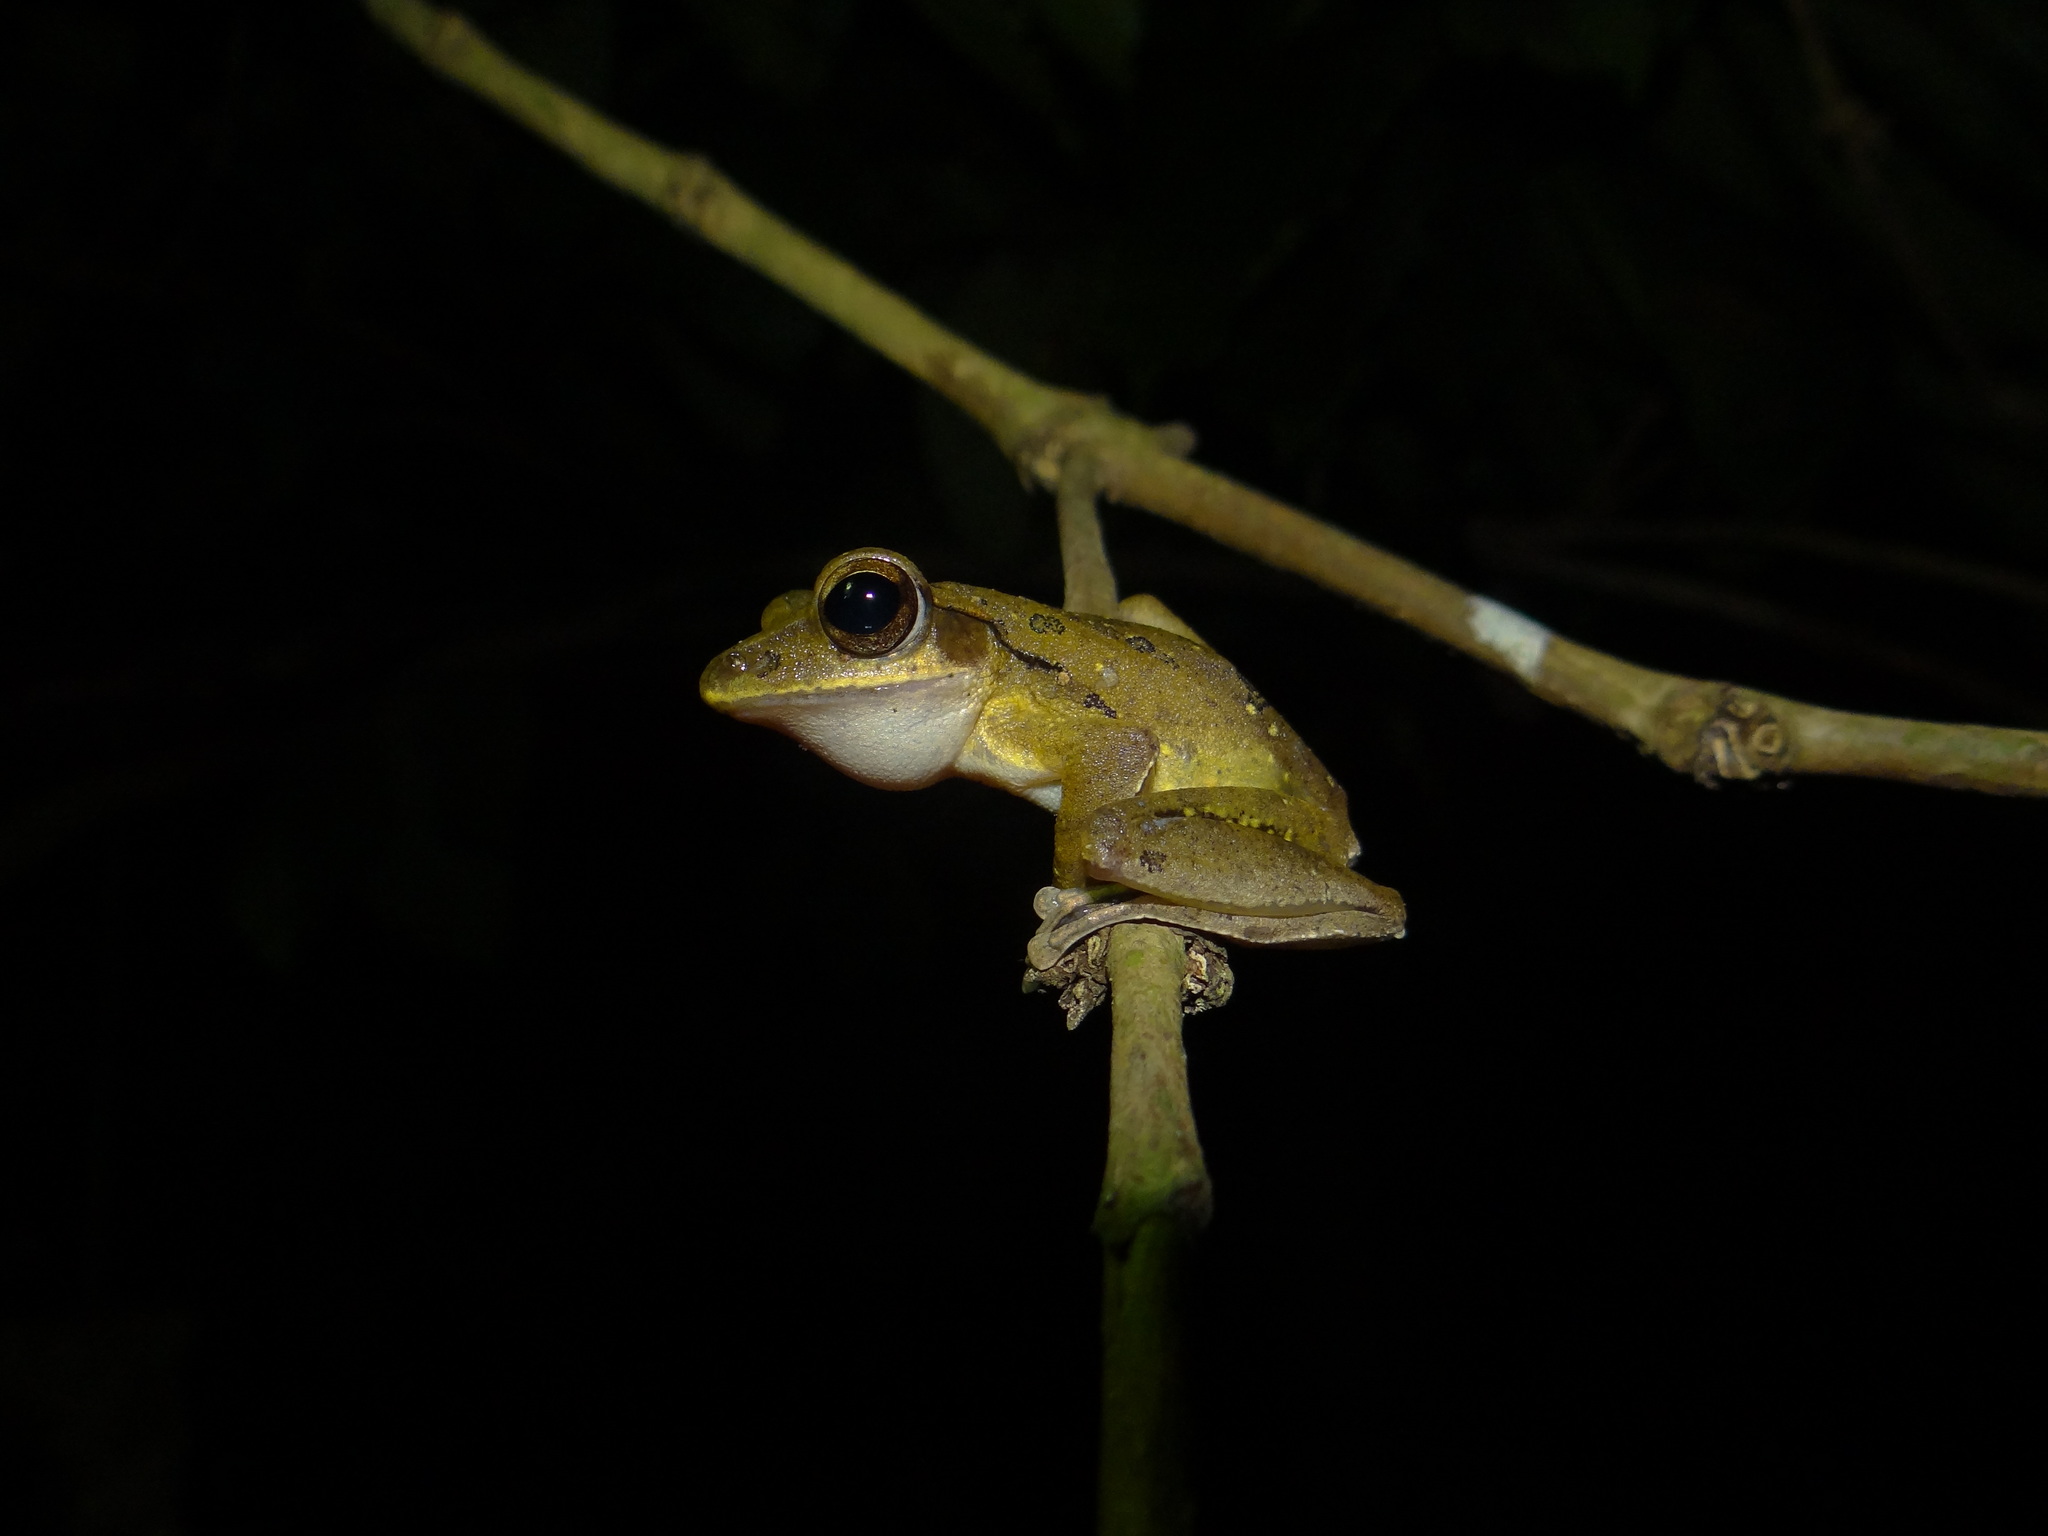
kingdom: Animalia
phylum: Chordata
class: Amphibia
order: Anura
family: Rhacophoridae
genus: Polypedates
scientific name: Polypedates occidentalis
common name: Charpa tree frog
